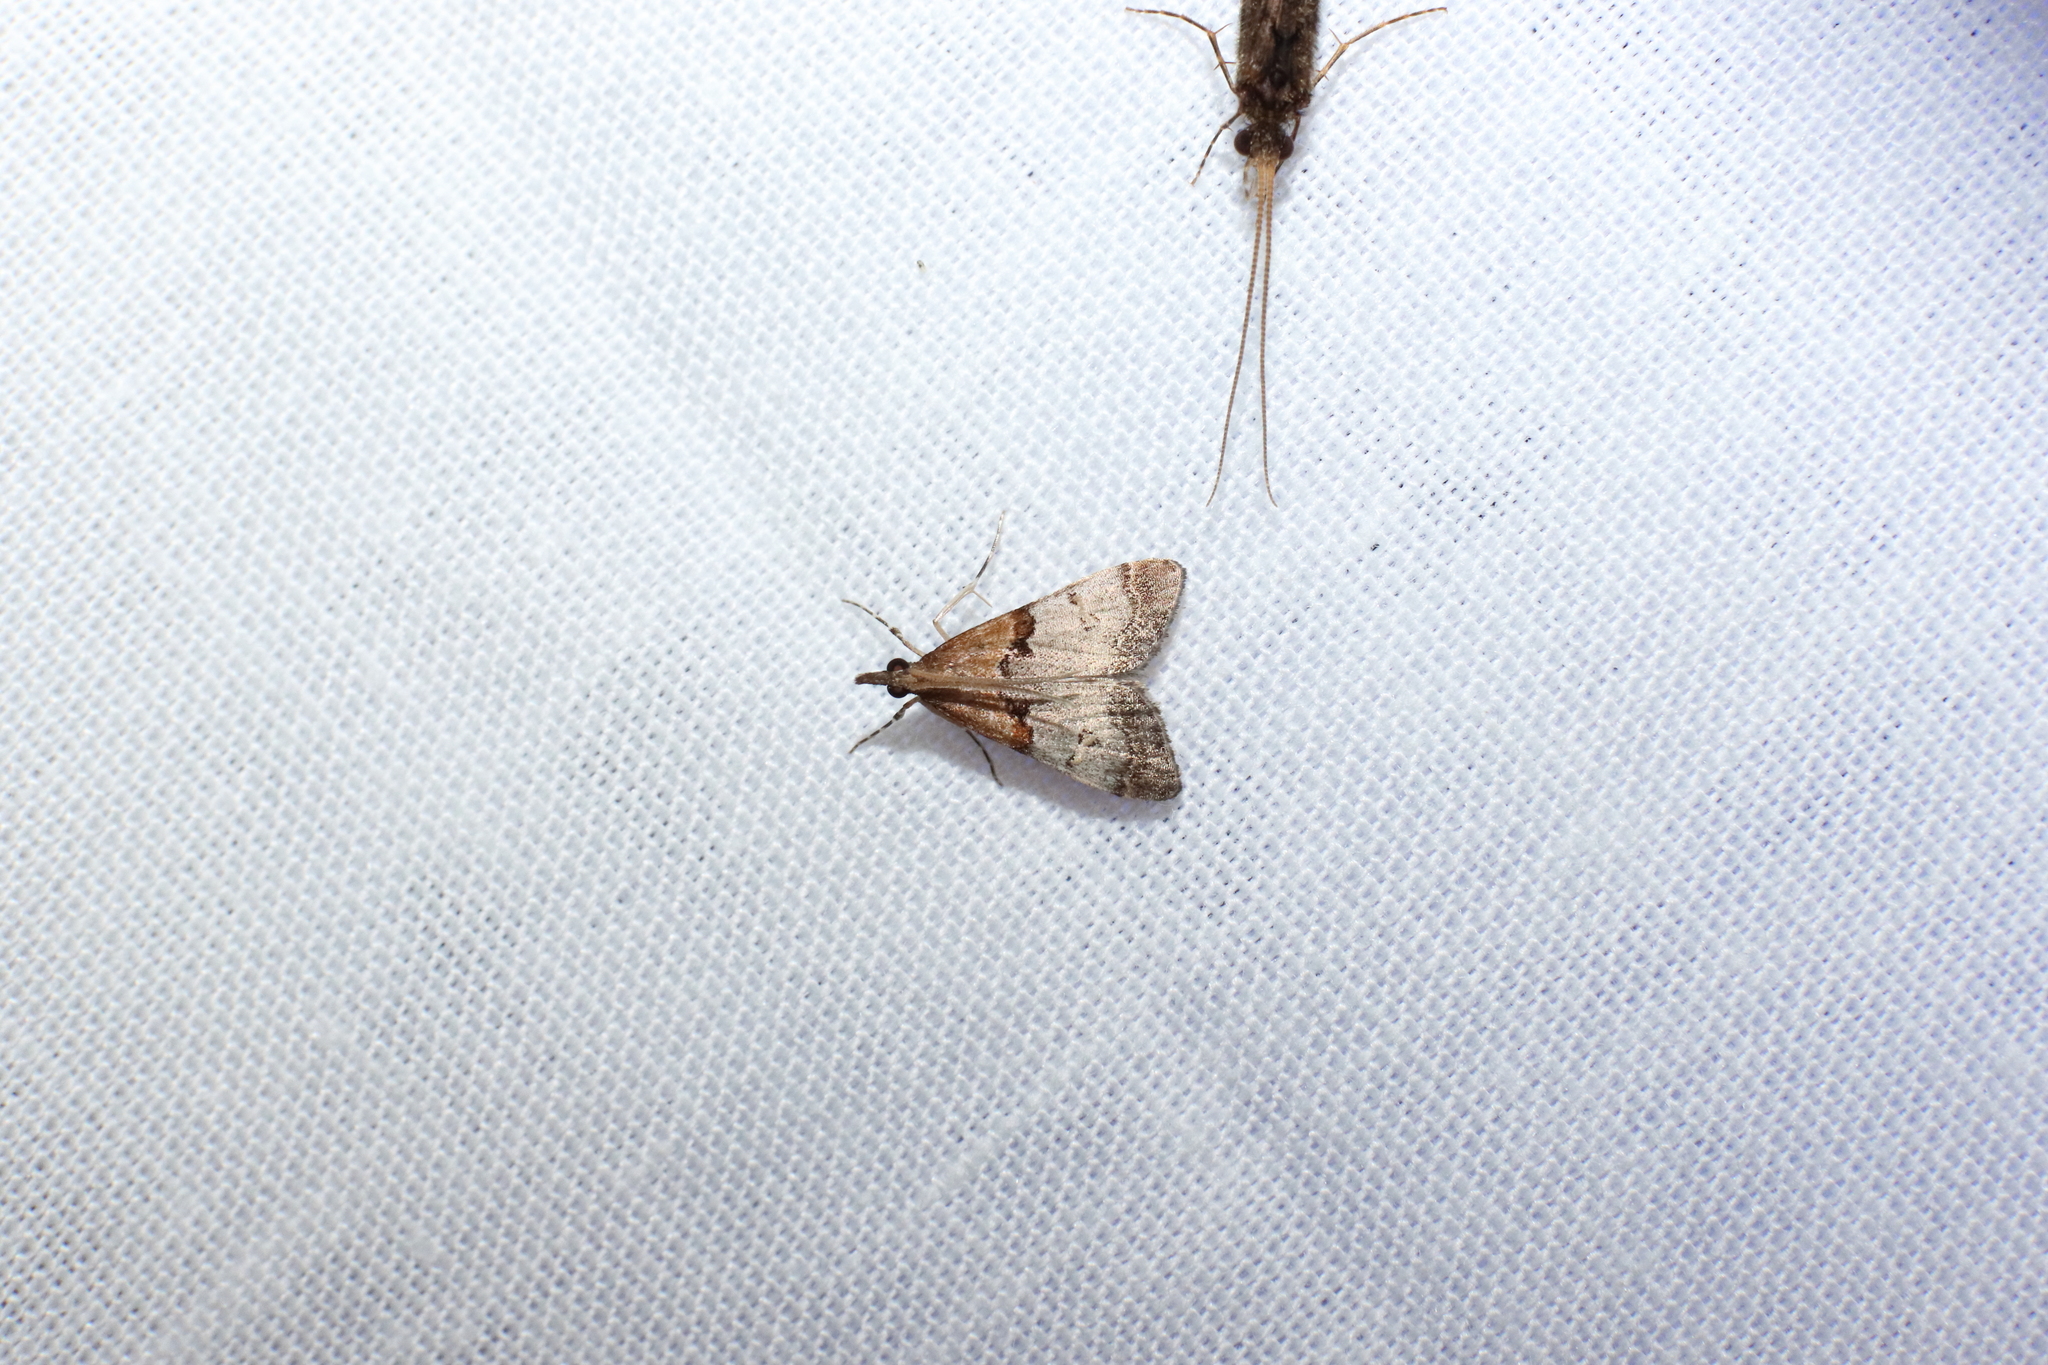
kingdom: Animalia
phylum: Arthropoda
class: Insecta
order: Lepidoptera
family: Crambidae
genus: Antiscopa
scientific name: Antiscopa epicomia
